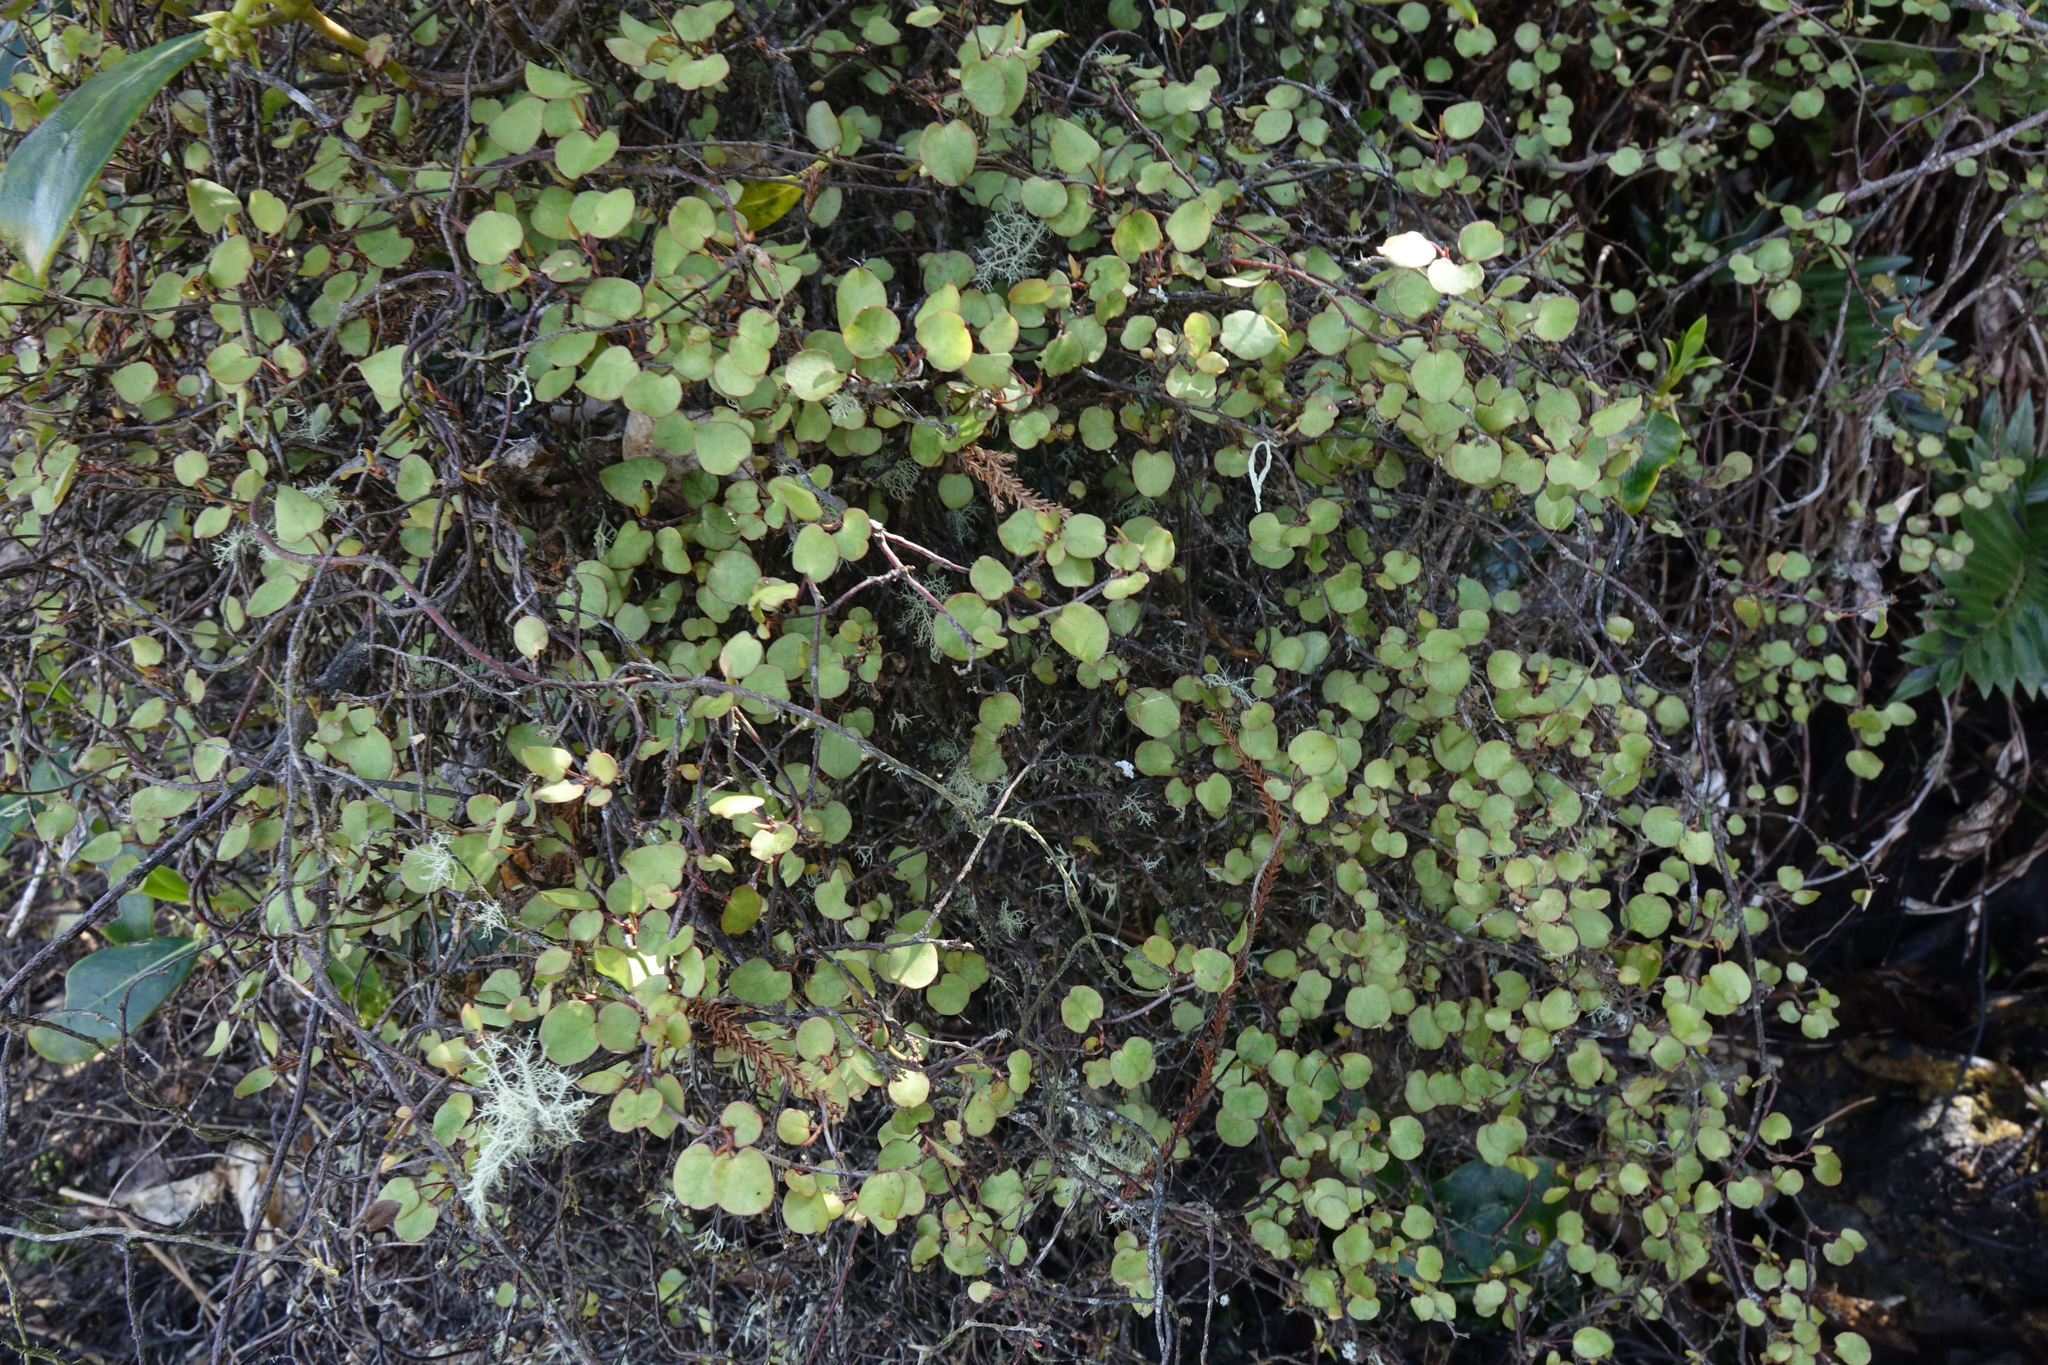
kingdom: Plantae
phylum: Tracheophyta
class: Magnoliopsida
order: Caryophyllales
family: Polygonaceae
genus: Muehlenbeckia
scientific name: Muehlenbeckia complexa
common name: Wireplant
